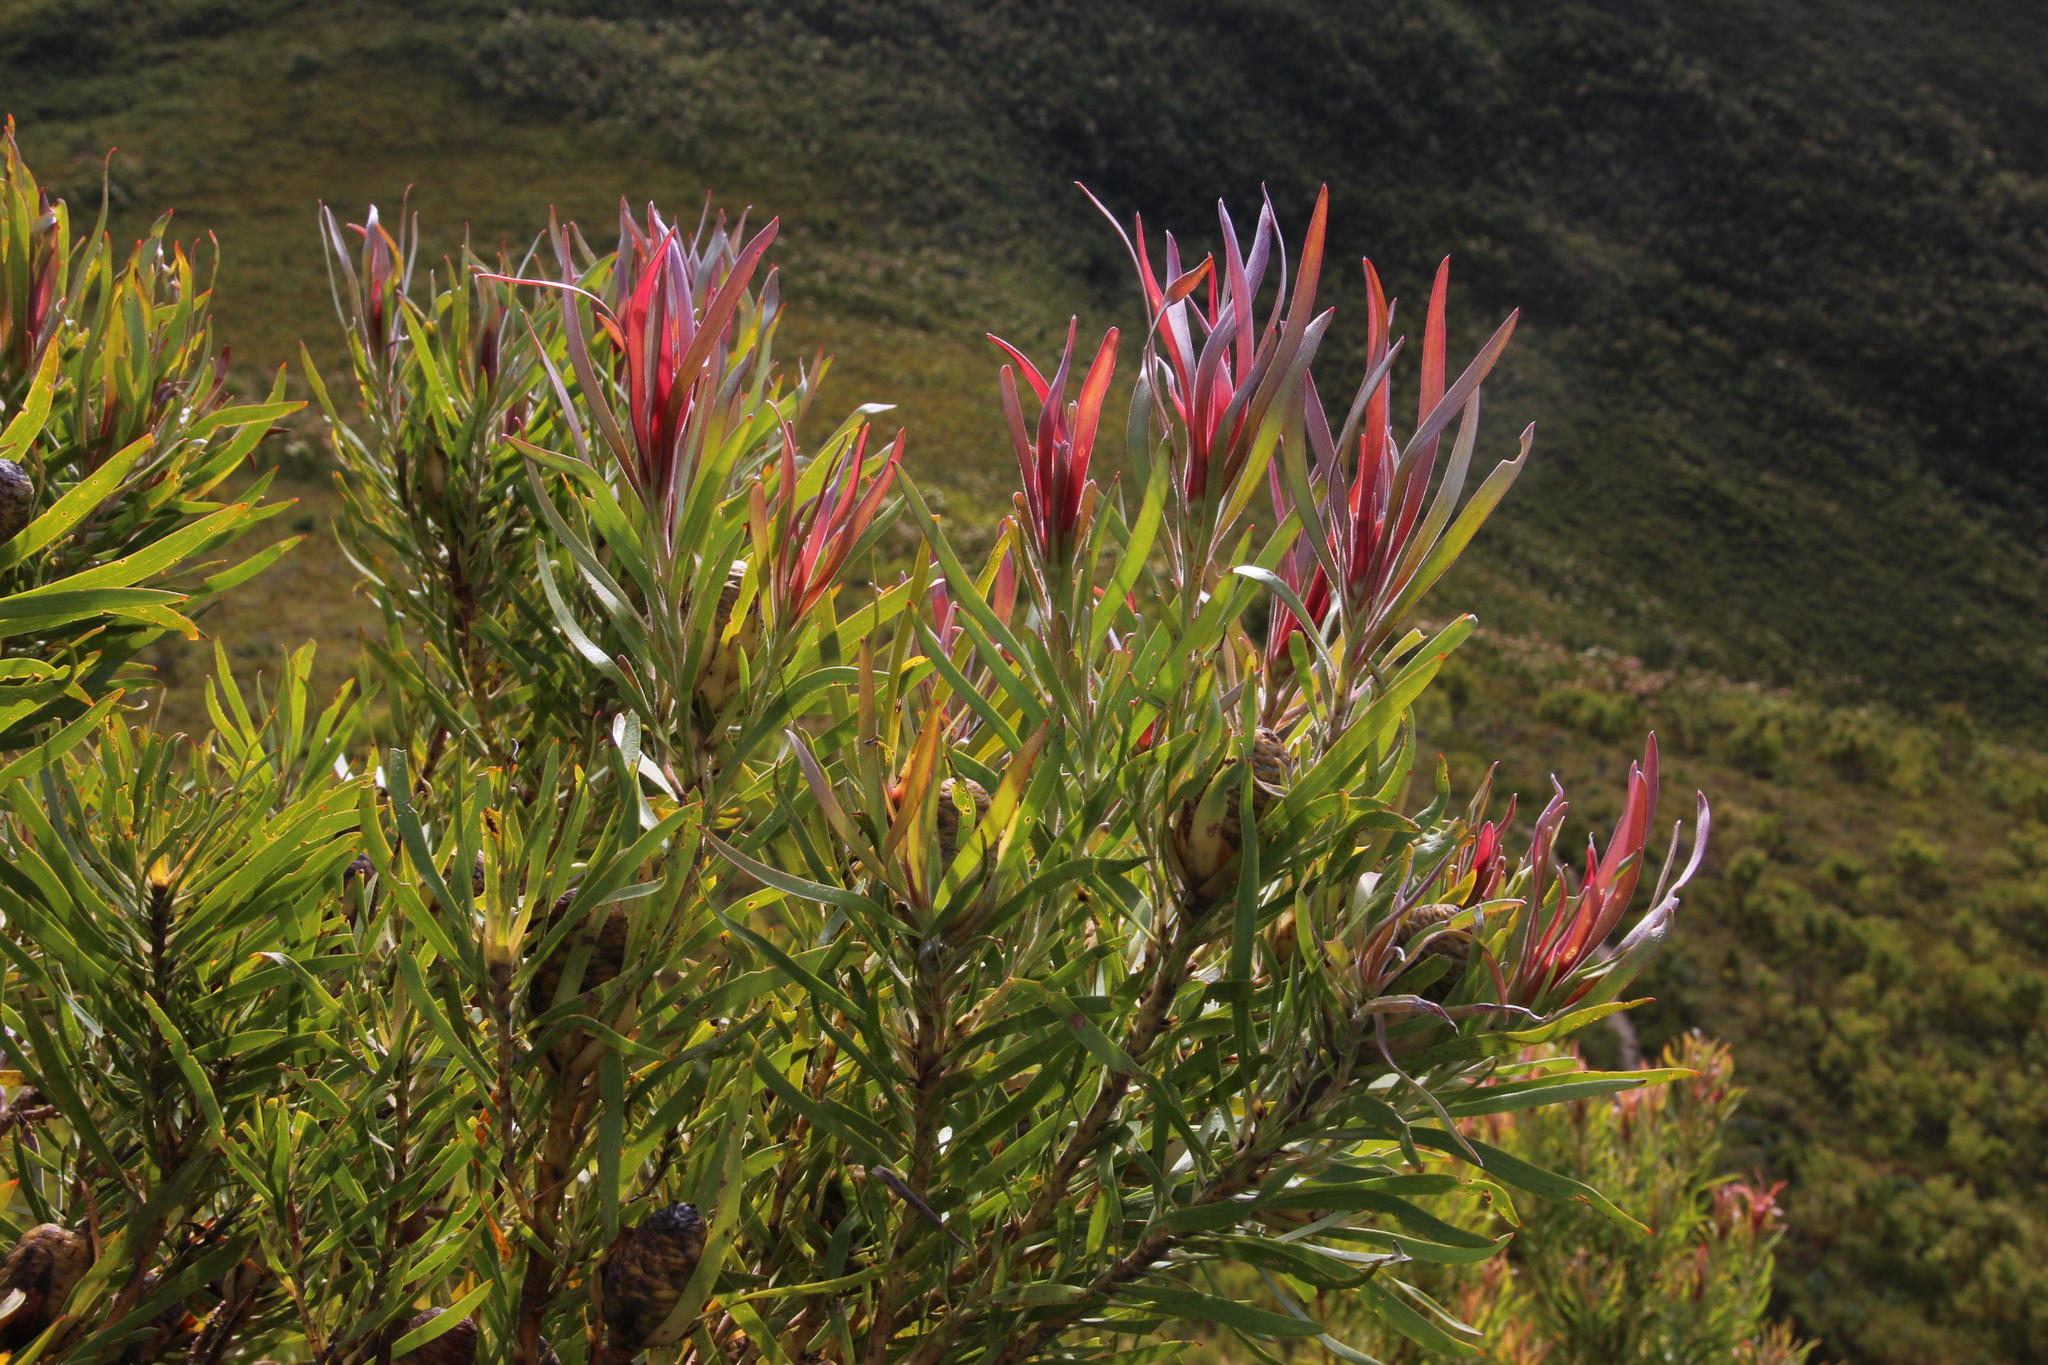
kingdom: Plantae
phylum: Tracheophyta
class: Magnoliopsida
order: Proteales
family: Proteaceae
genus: Leucadendron
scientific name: Leucadendron eucalyptifolium
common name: Gum-leaved conebush
